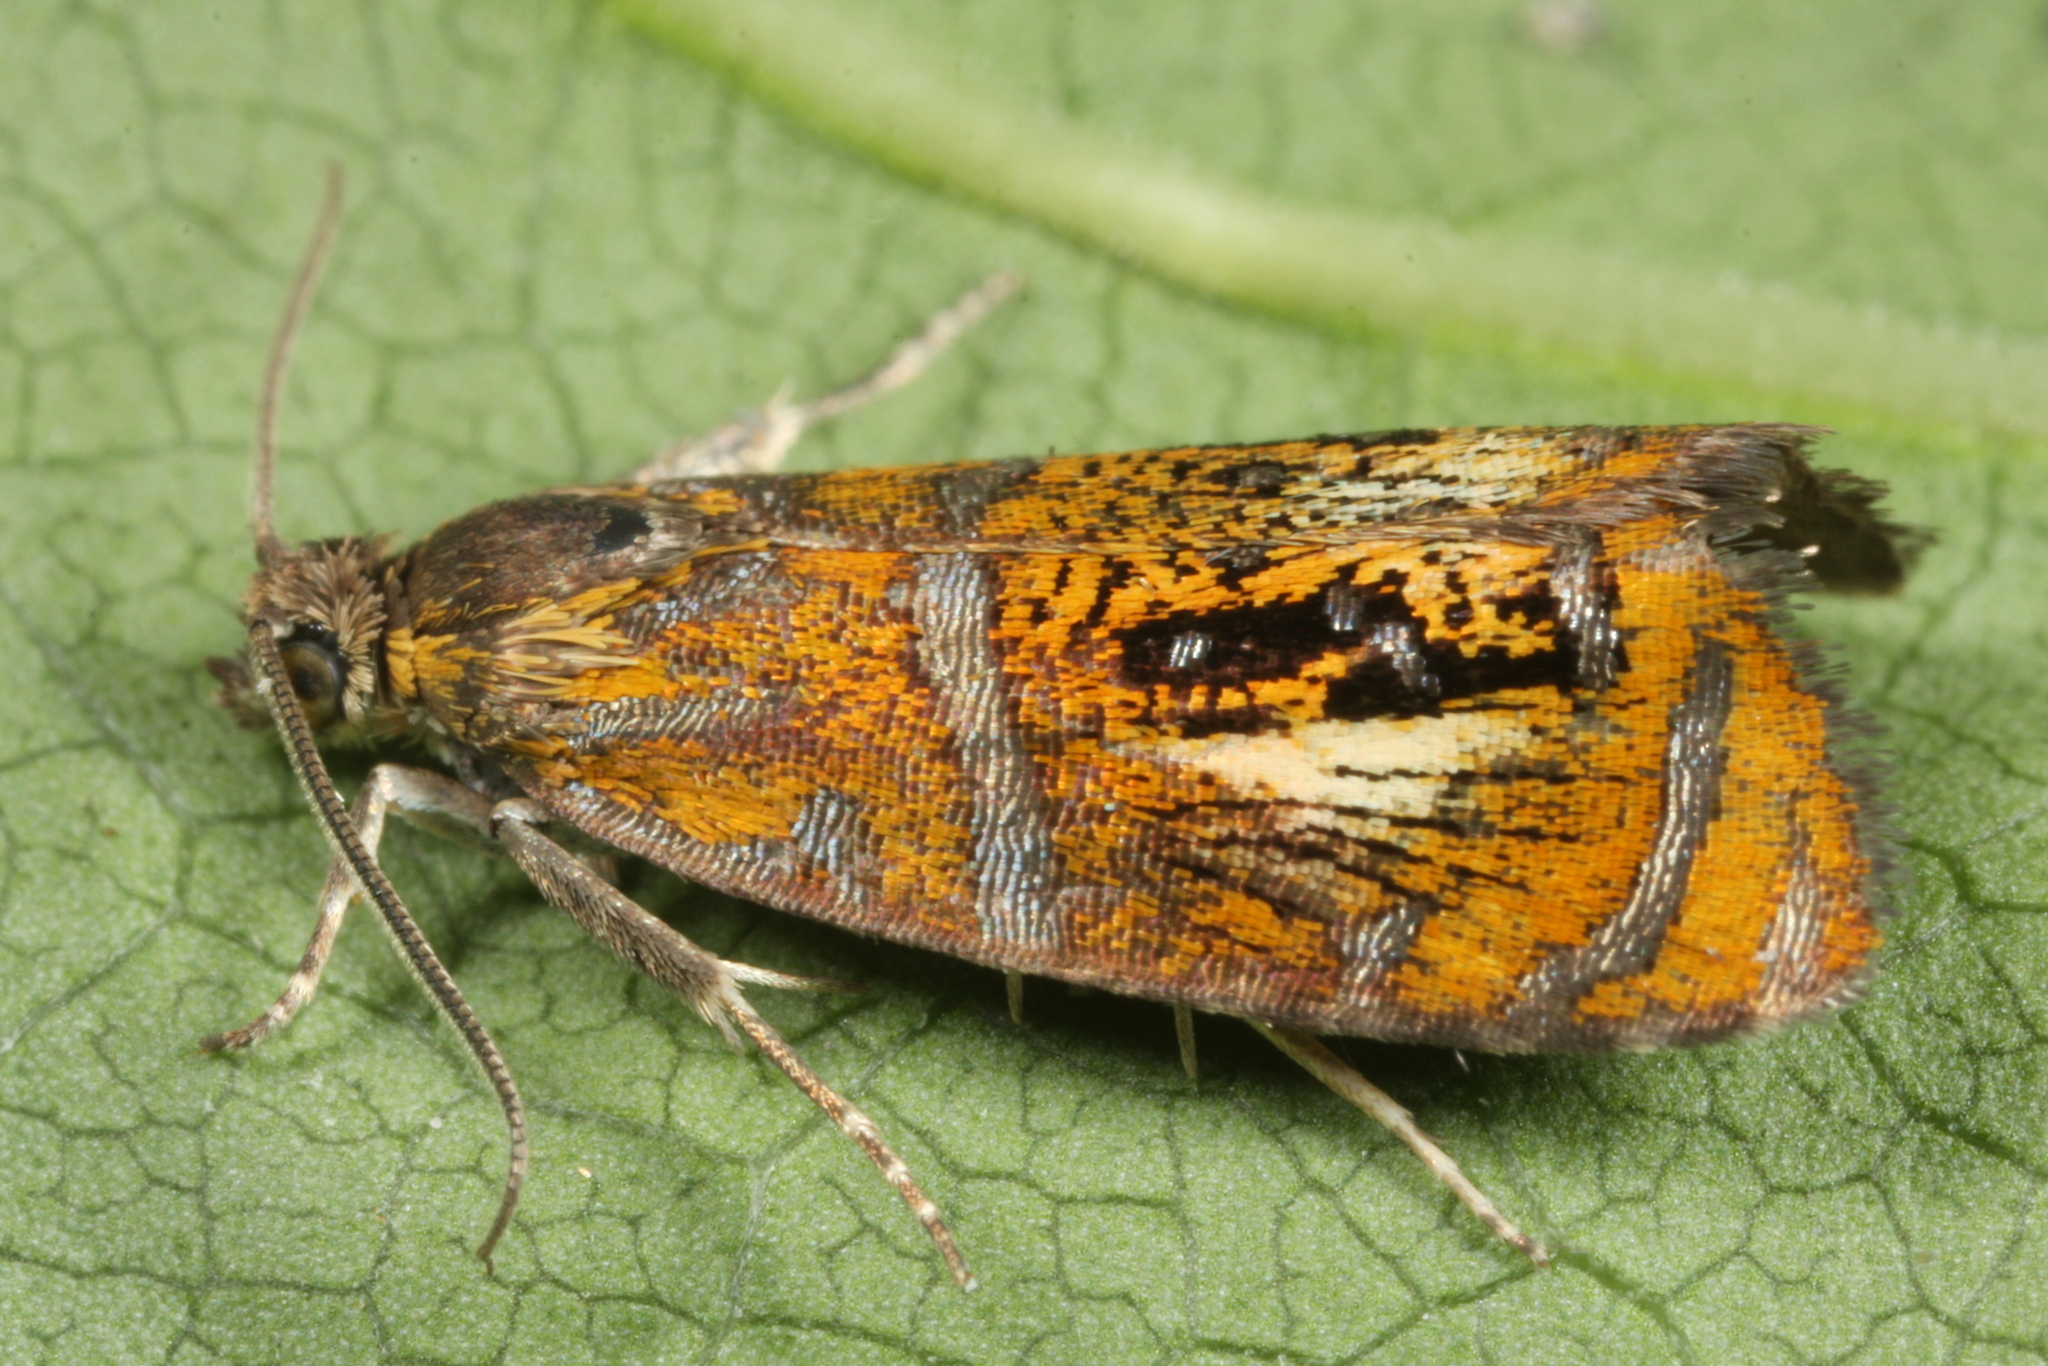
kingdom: Animalia
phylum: Arthropoda
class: Insecta
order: Lepidoptera
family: Tortricidae
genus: Olethreutes
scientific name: Olethreutes arcuella
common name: Arched marble
